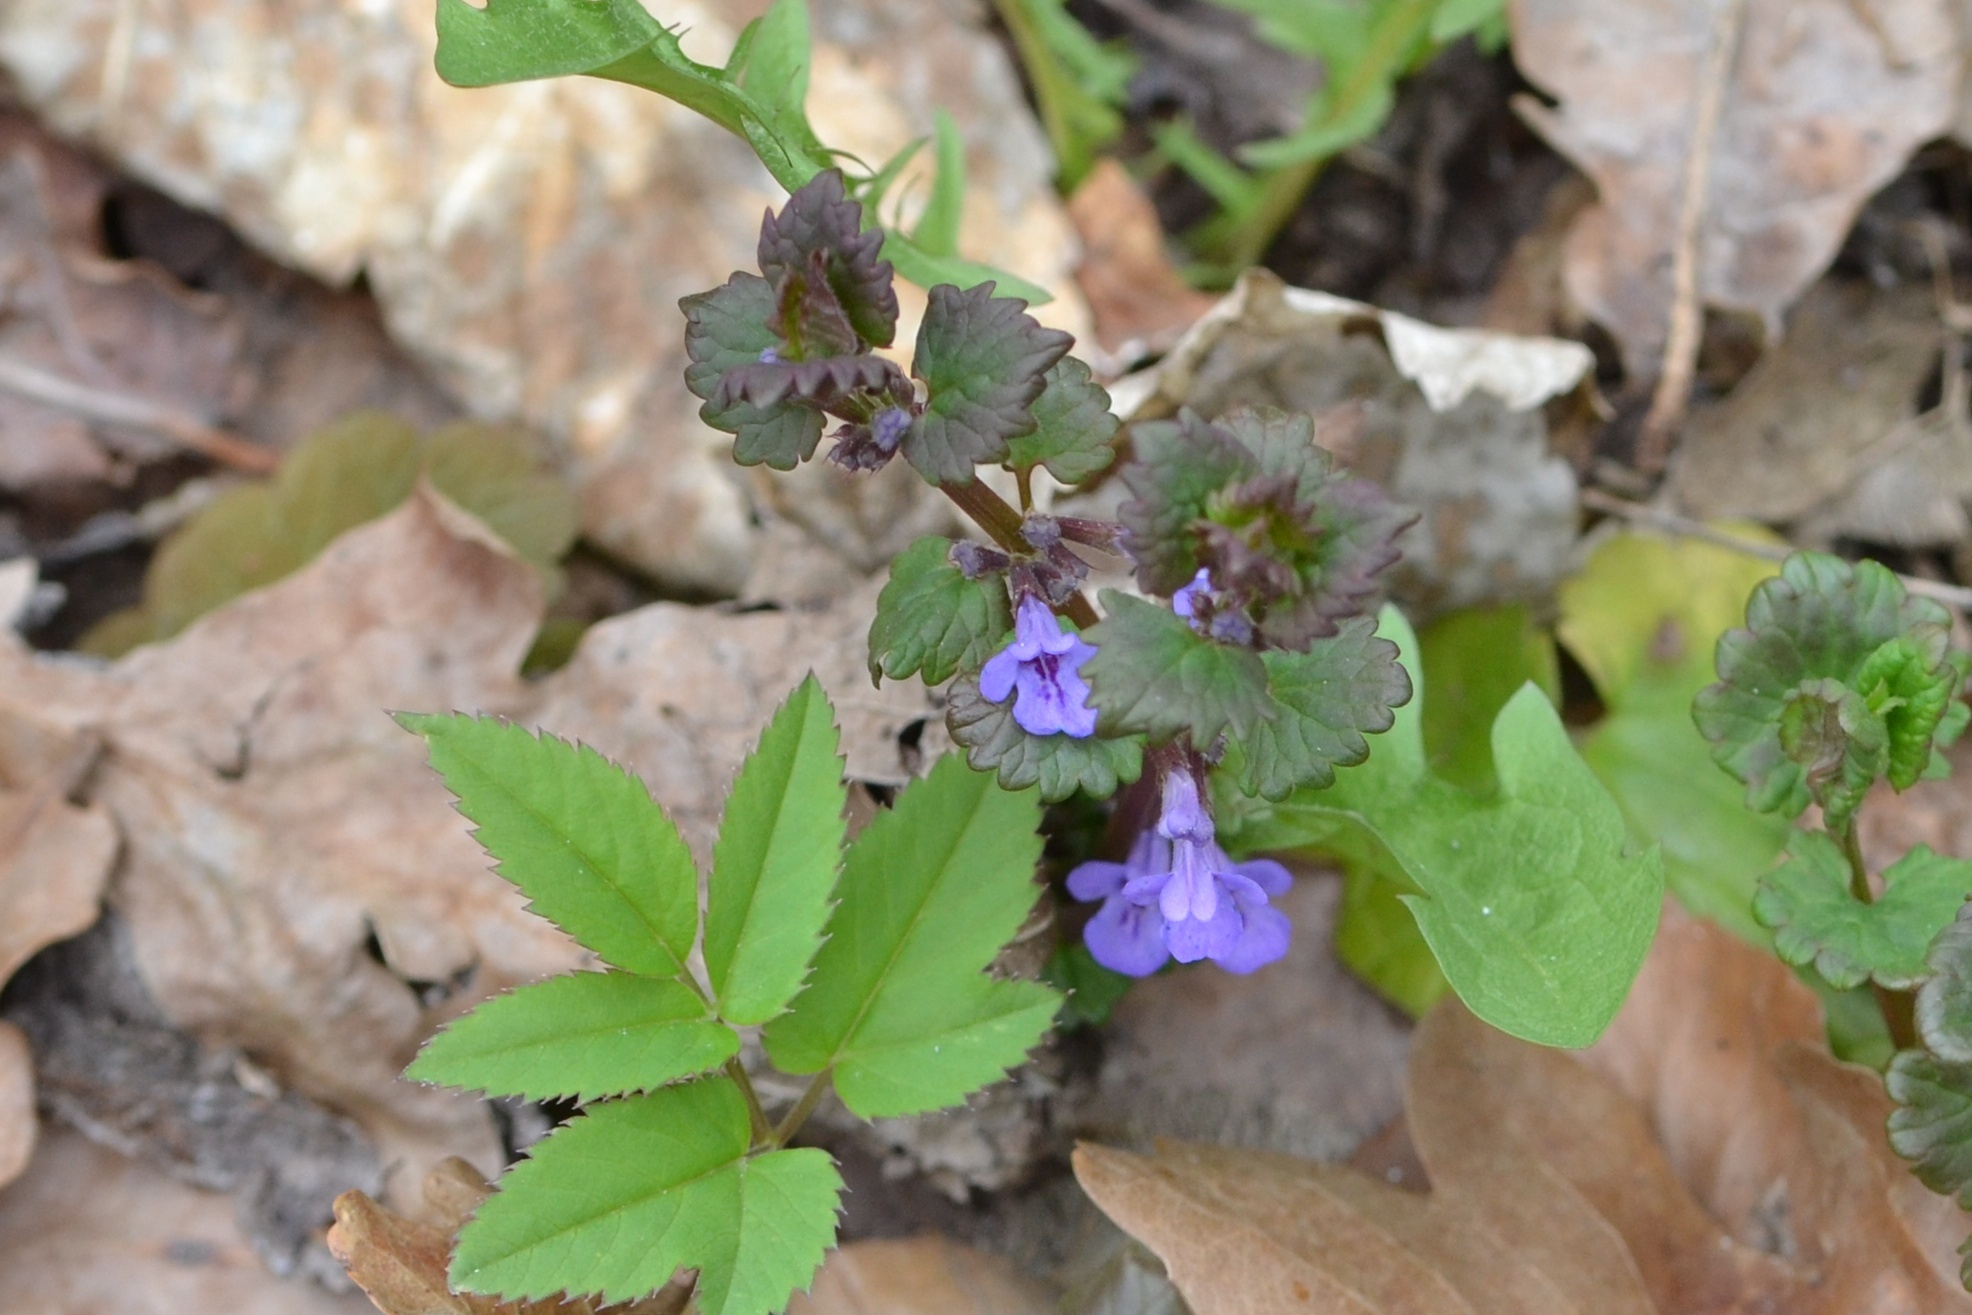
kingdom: Plantae
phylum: Tracheophyta
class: Magnoliopsida
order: Lamiales
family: Lamiaceae
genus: Glechoma
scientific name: Glechoma hederacea
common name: Ground ivy
